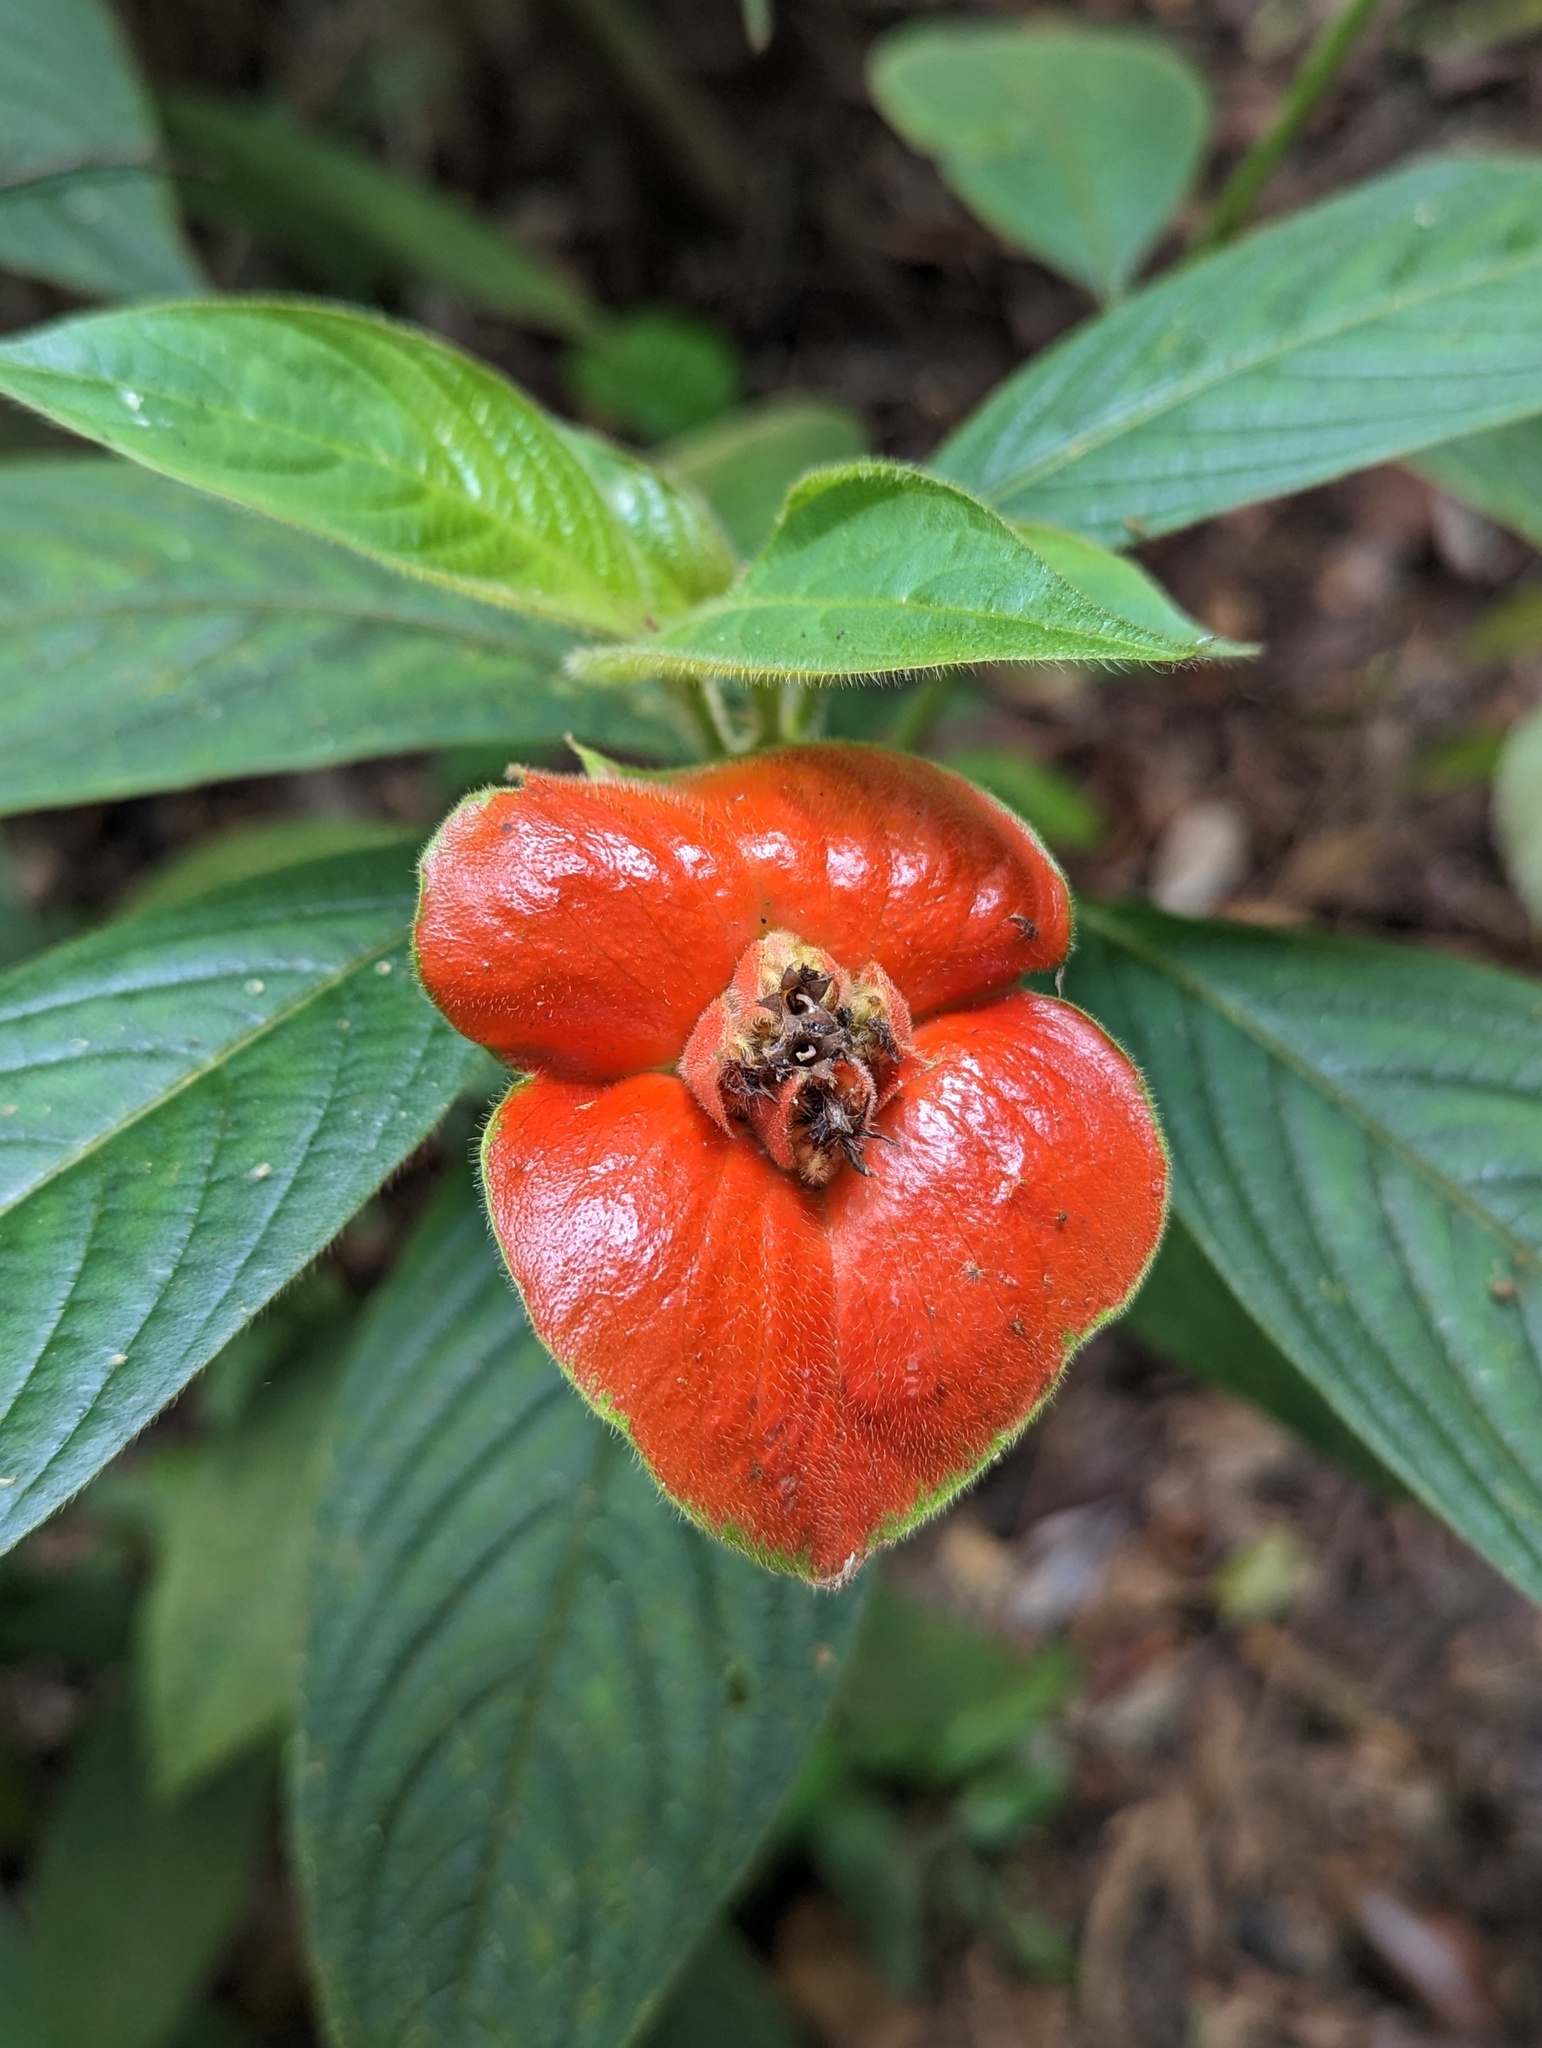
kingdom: Plantae
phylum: Tracheophyta
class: Magnoliopsida
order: Gentianales
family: Rubiaceae
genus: Palicourea
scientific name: Palicourea tomentosa
